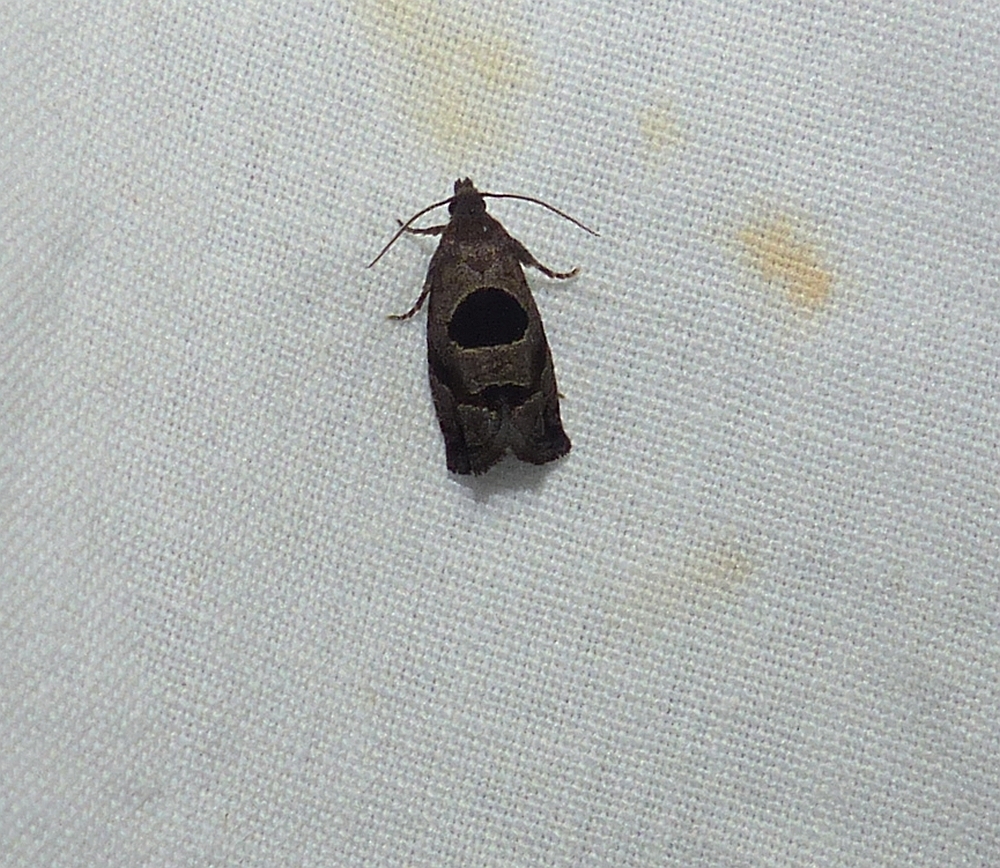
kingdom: Animalia
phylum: Arthropoda
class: Insecta
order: Lepidoptera
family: Tortricidae
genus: Epiblema
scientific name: Epiblema brightonana
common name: Brighton's epiblema moth
